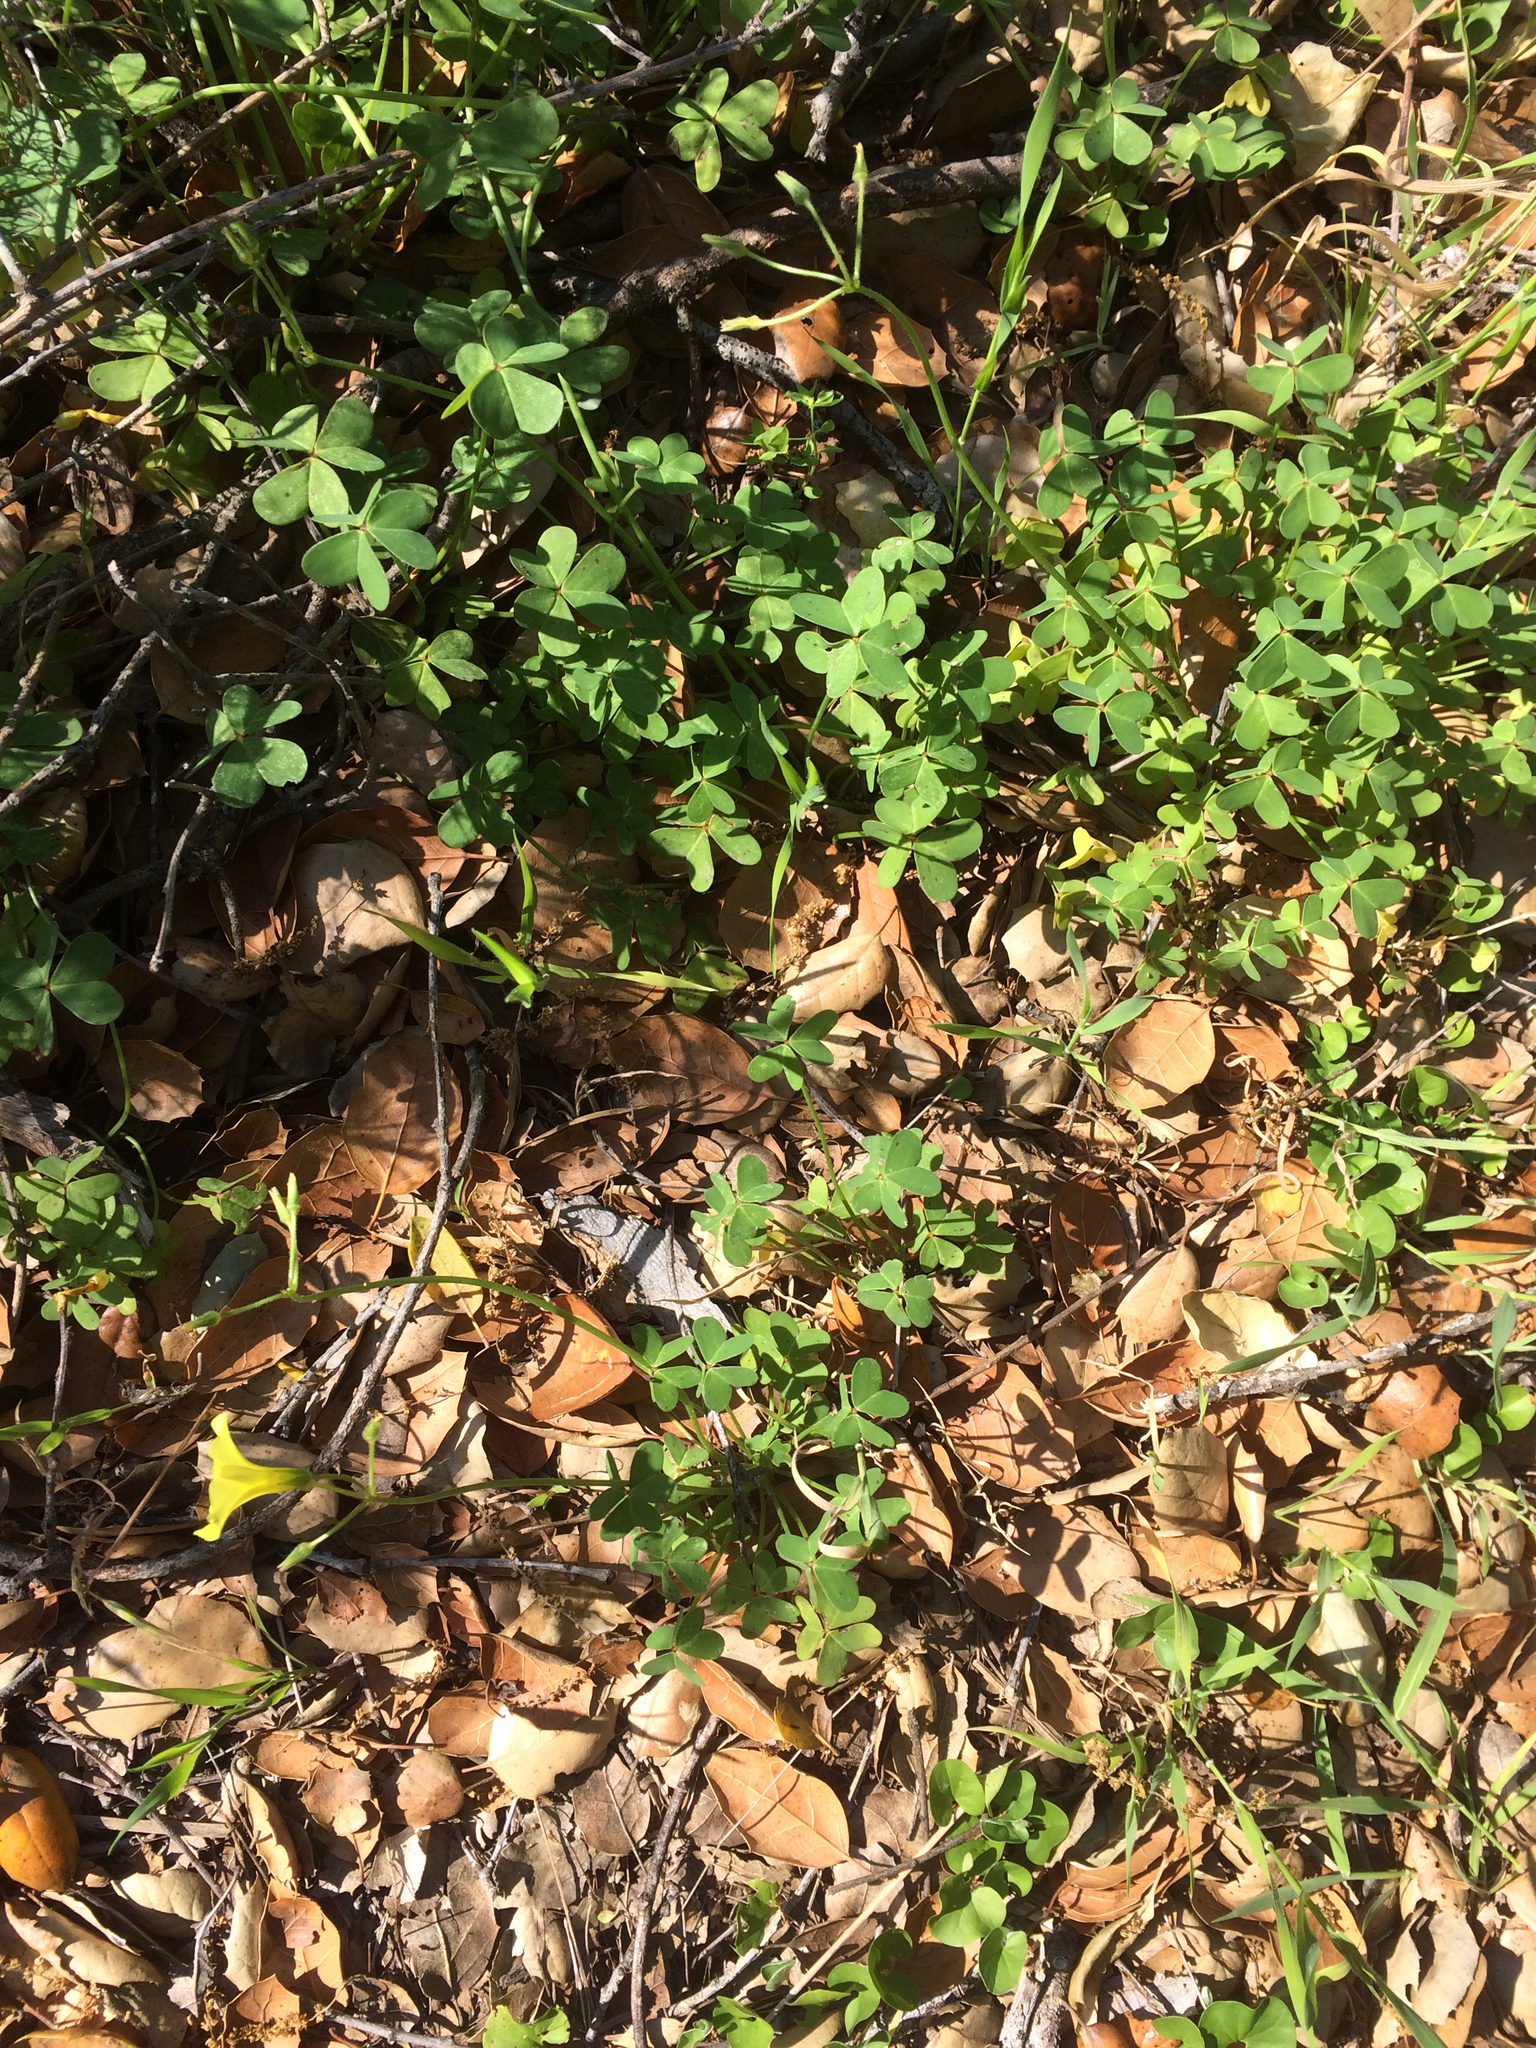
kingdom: Plantae
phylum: Tracheophyta
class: Magnoliopsida
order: Oxalidales
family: Oxalidaceae
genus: Oxalis
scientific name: Oxalis pes-caprae
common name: Bermuda-buttercup
